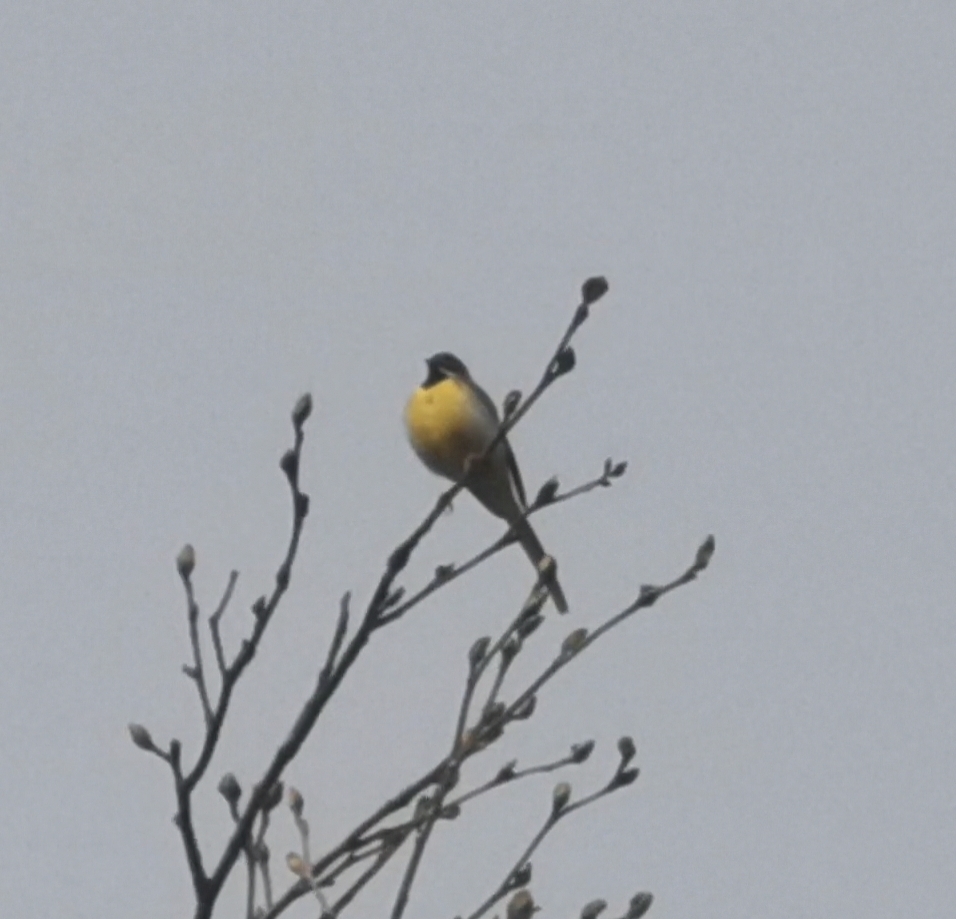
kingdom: Animalia
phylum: Chordata
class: Aves
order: Passeriformes
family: Motacillidae
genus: Motacilla
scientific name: Motacilla cinerea
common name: Grey wagtail
